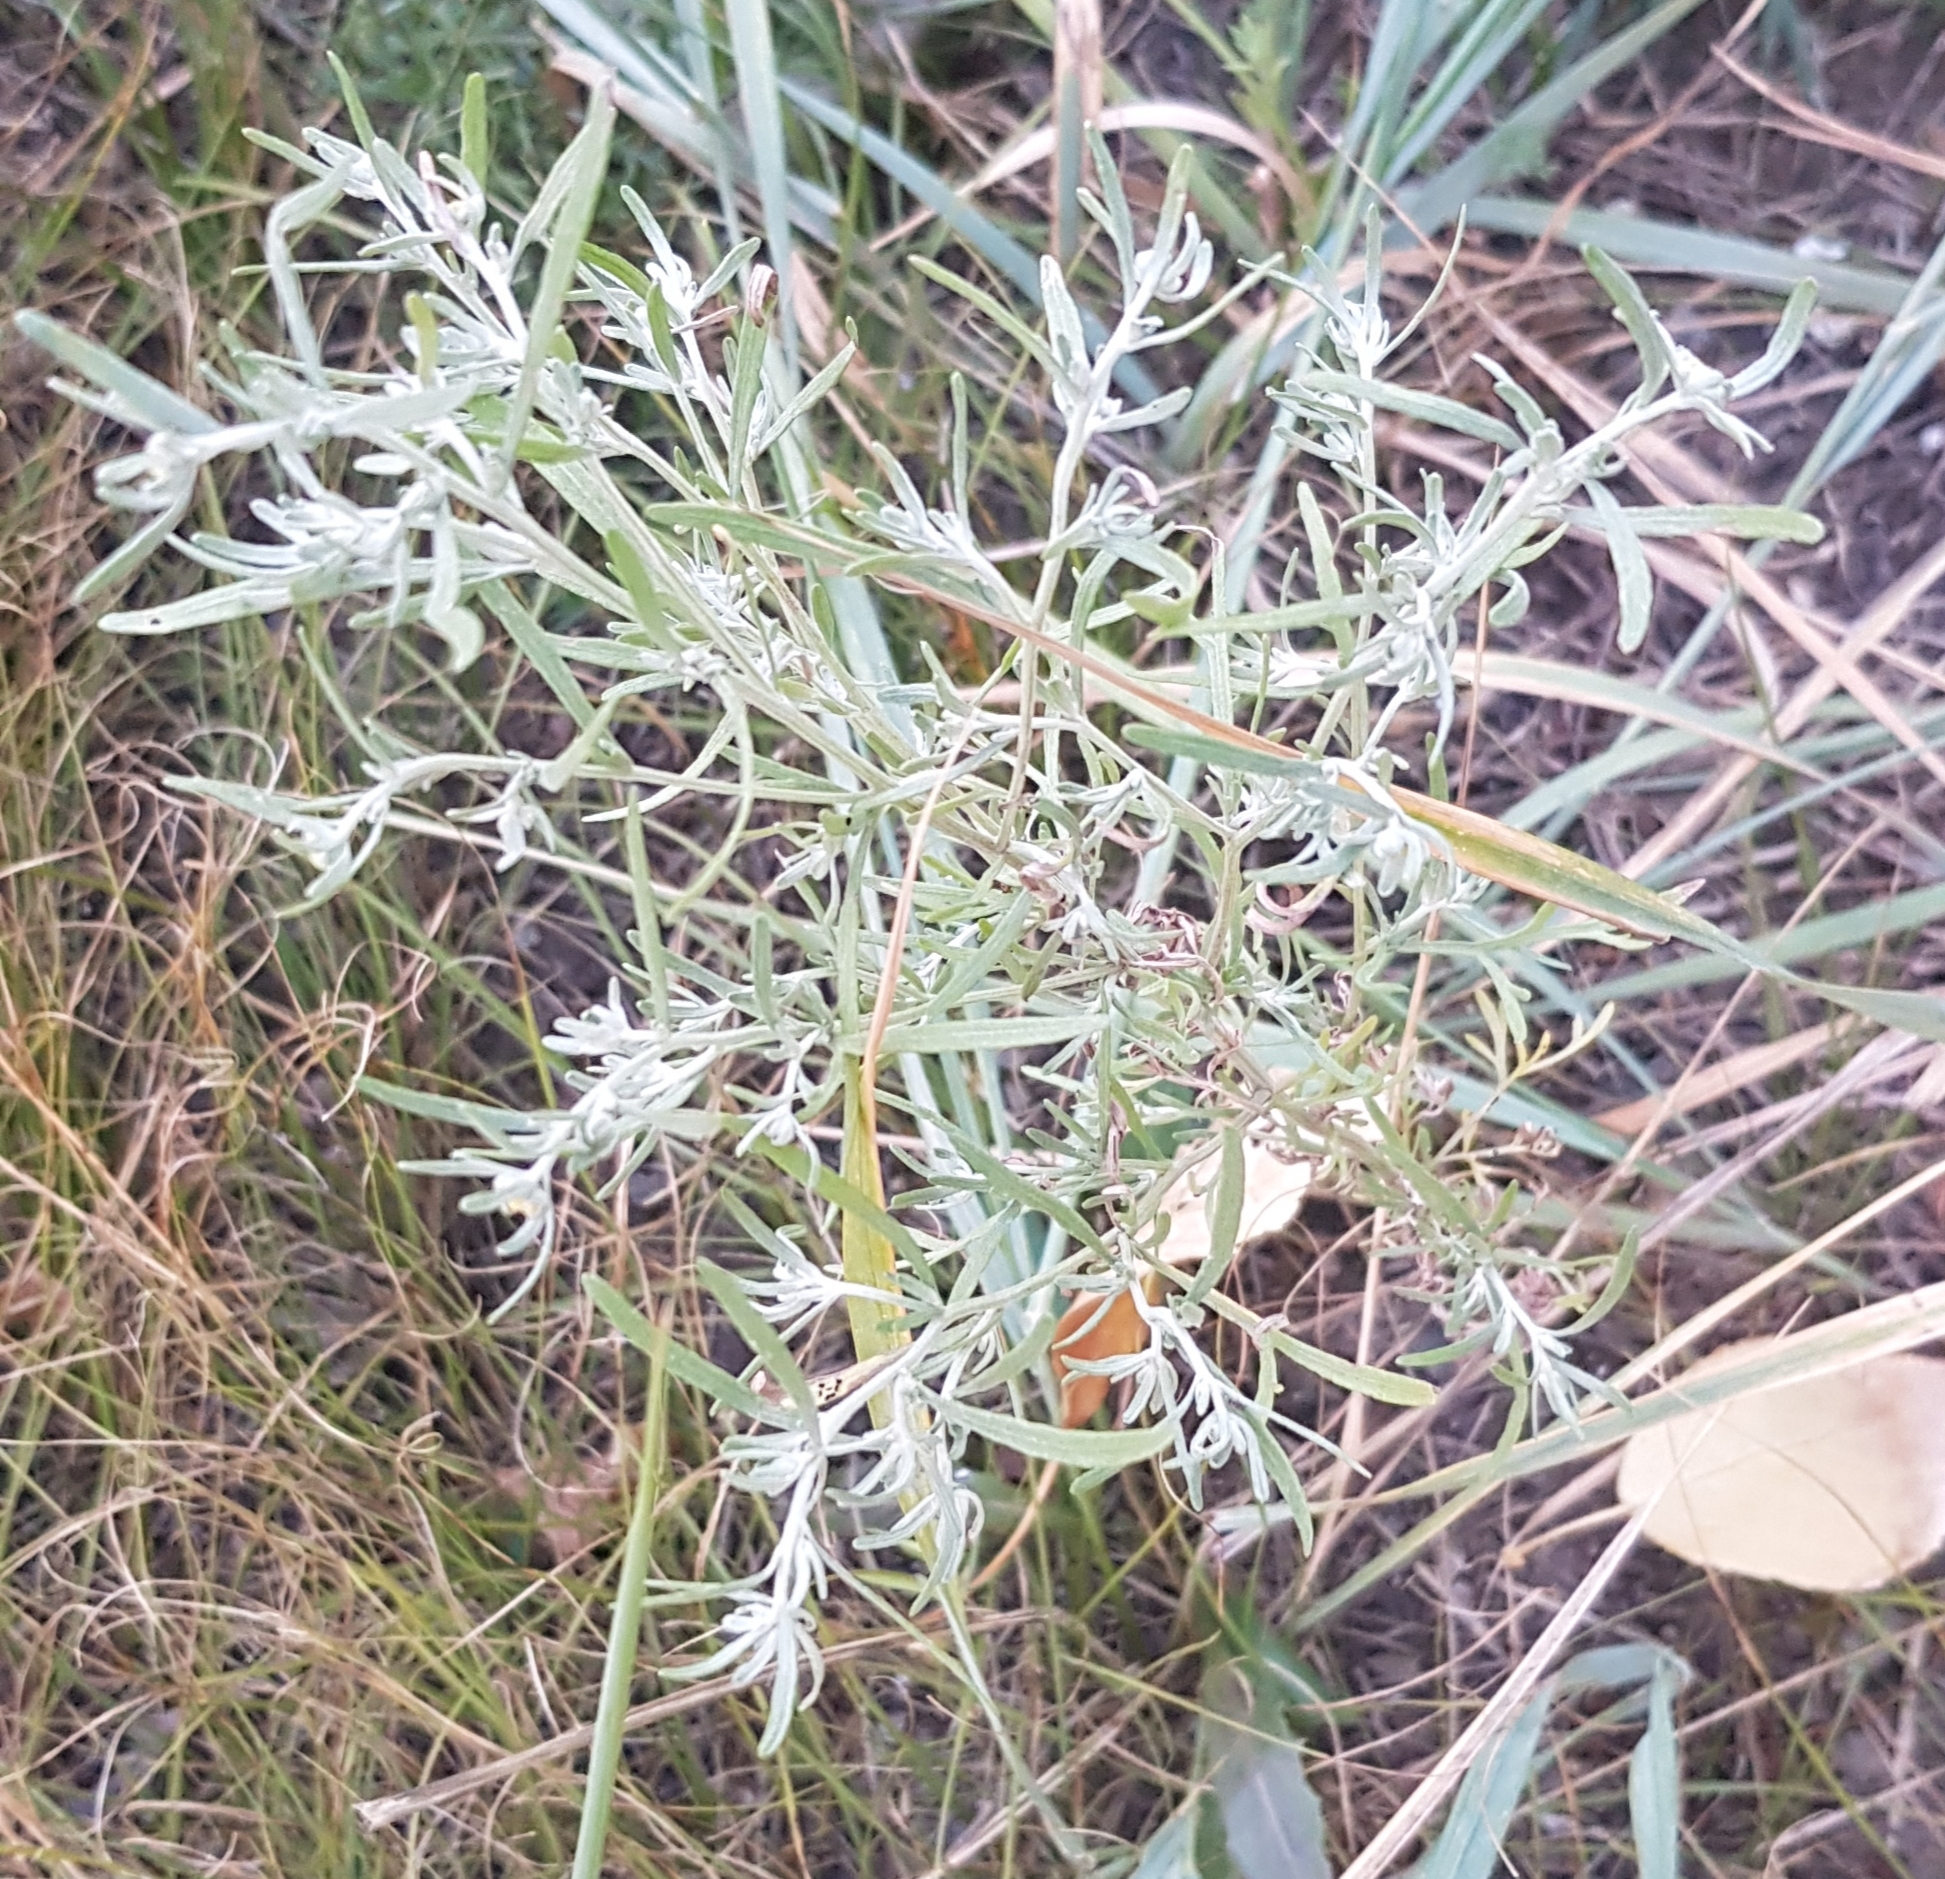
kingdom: Plantae
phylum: Tracheophyta
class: Magnoliopsida
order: Asterales
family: Asteraceae
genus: Artemisia
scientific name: Artemisia sieversiana
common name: Sieversian wormwood
